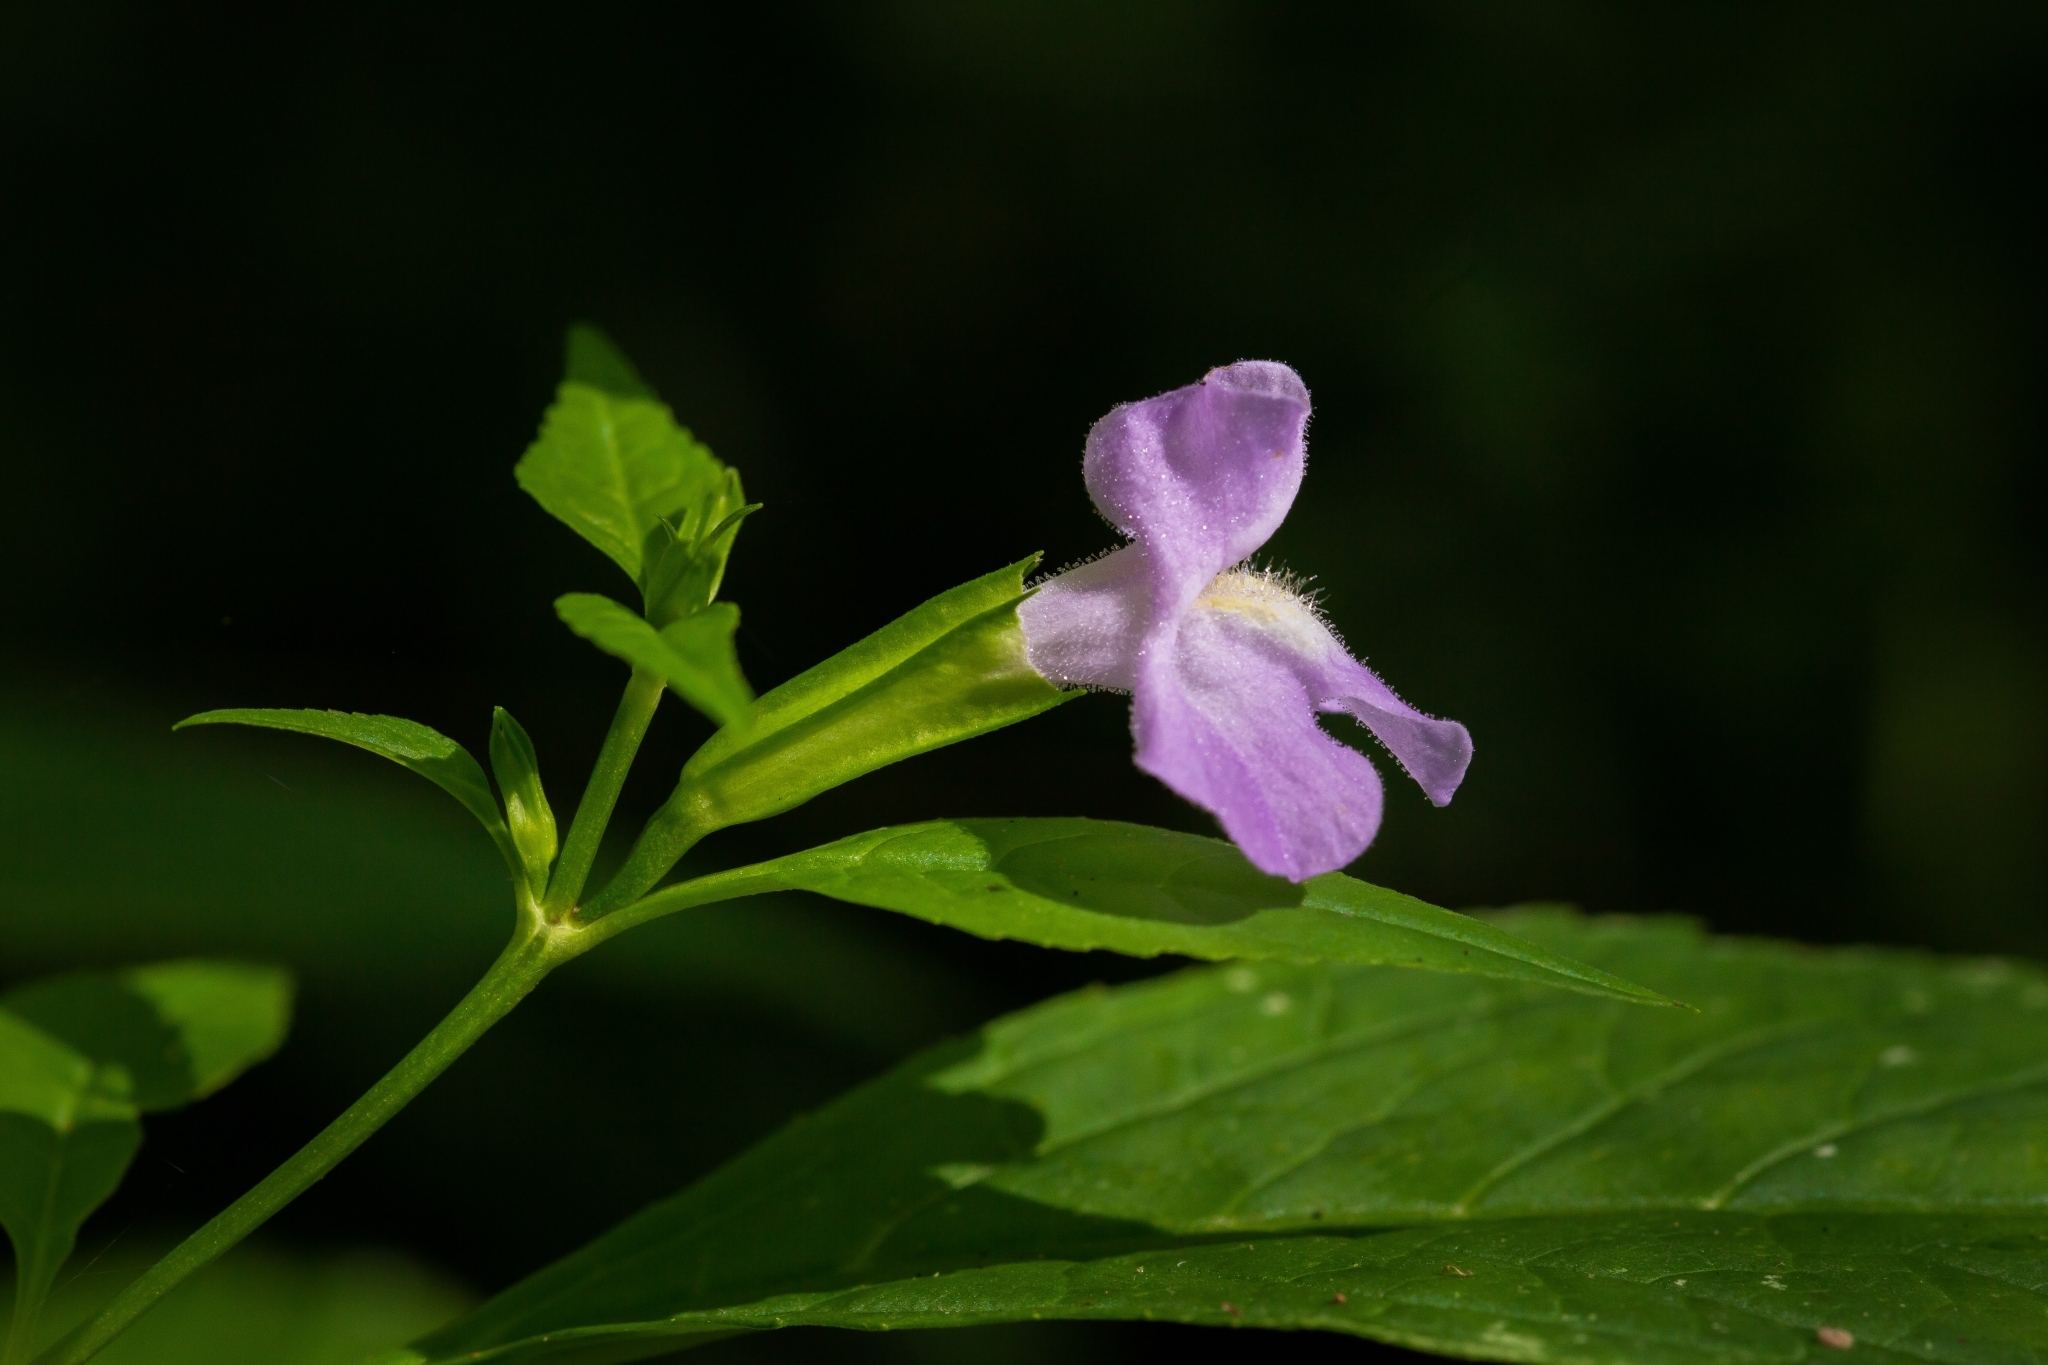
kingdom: Plantae
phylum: Tracheophyta
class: Magnoliopsida
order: Lamiales
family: Phrymaceae
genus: Mimulus
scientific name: Mimulus alatus
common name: Sharp-wing monkey-flower
